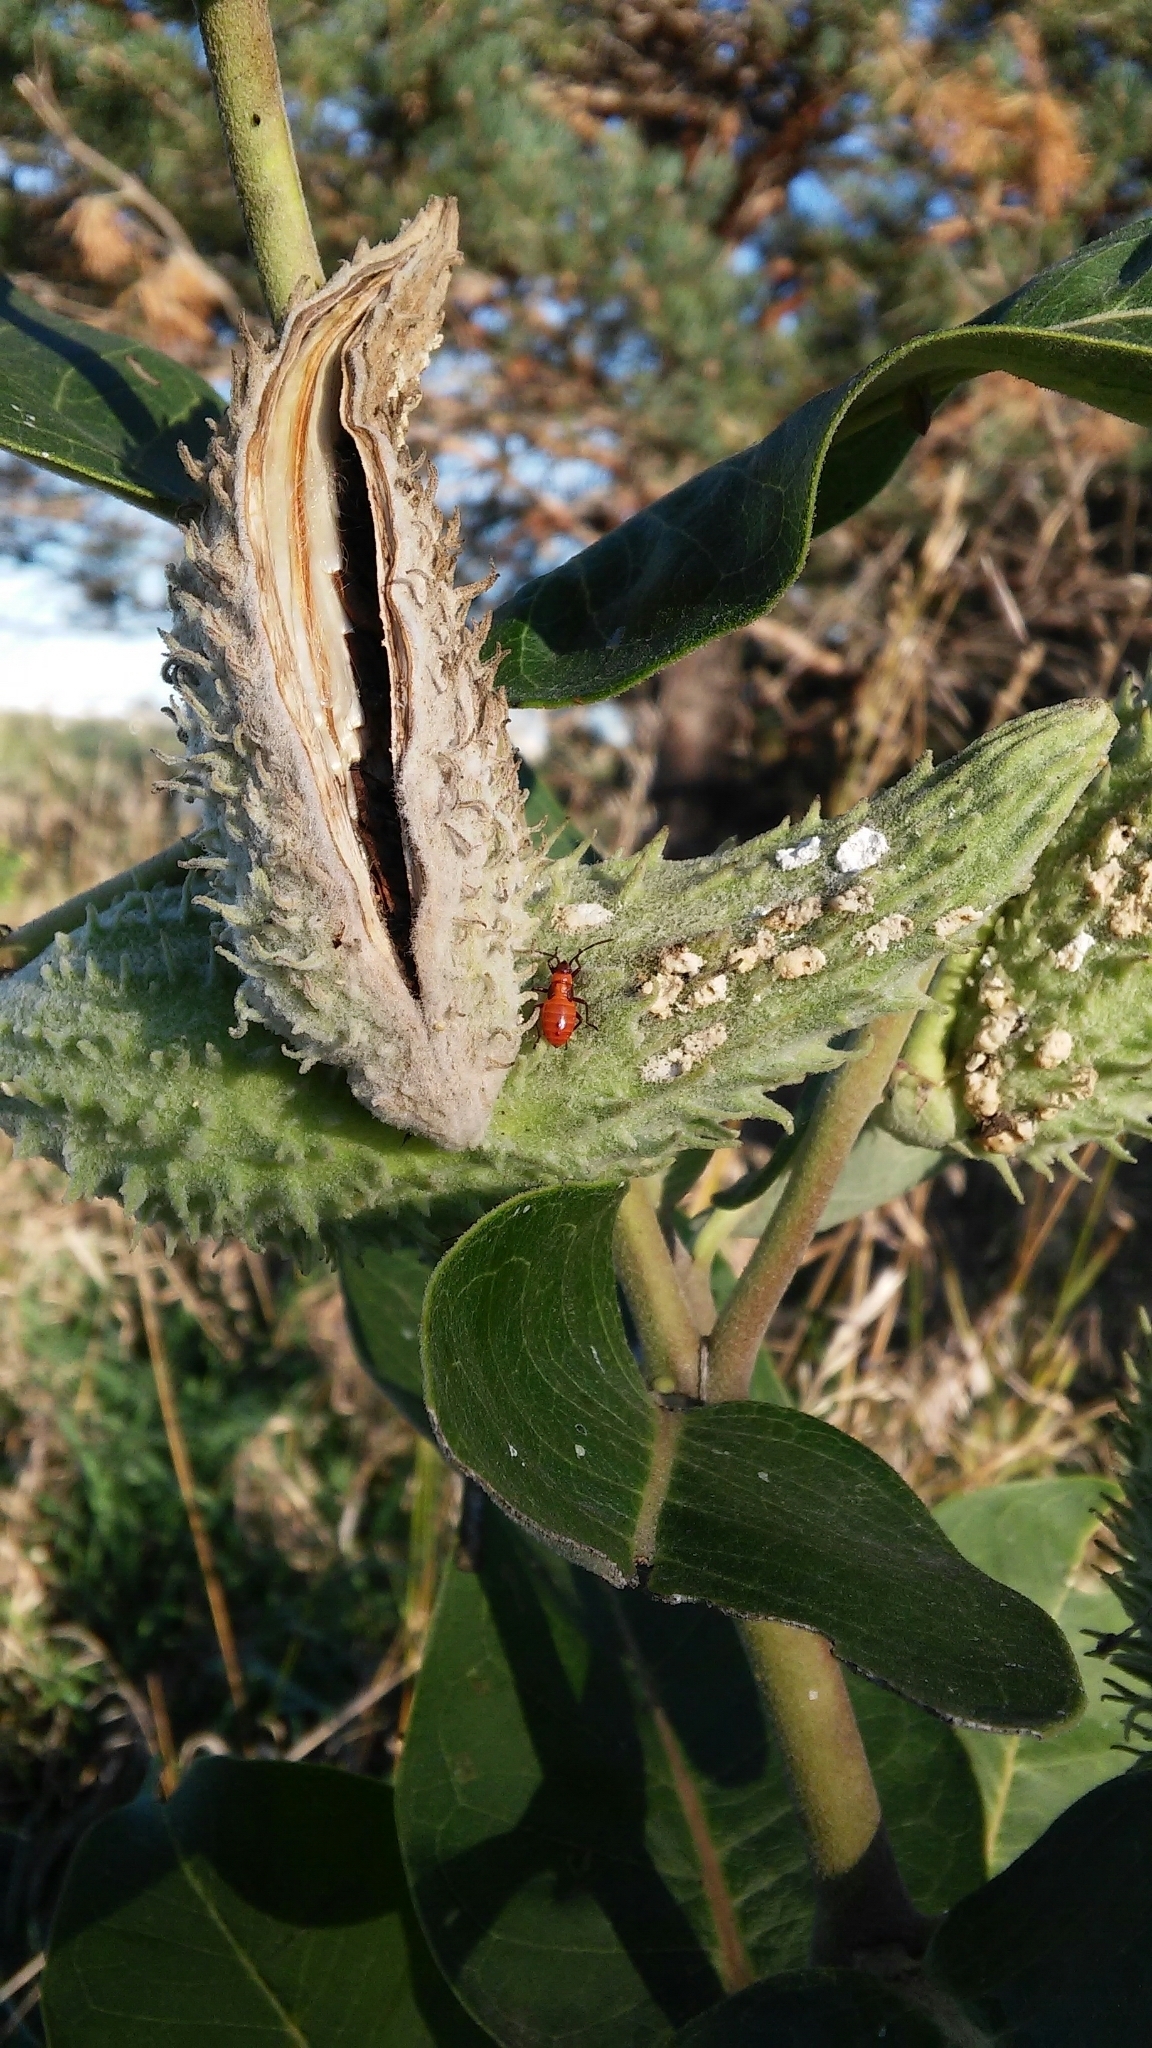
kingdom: Animalia
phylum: Arthropoda
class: Insecta
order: Hemiptera
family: Lygaeidae
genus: Oncopeltus
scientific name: Oncopeltus fasciatus
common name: Large milkweed bug
